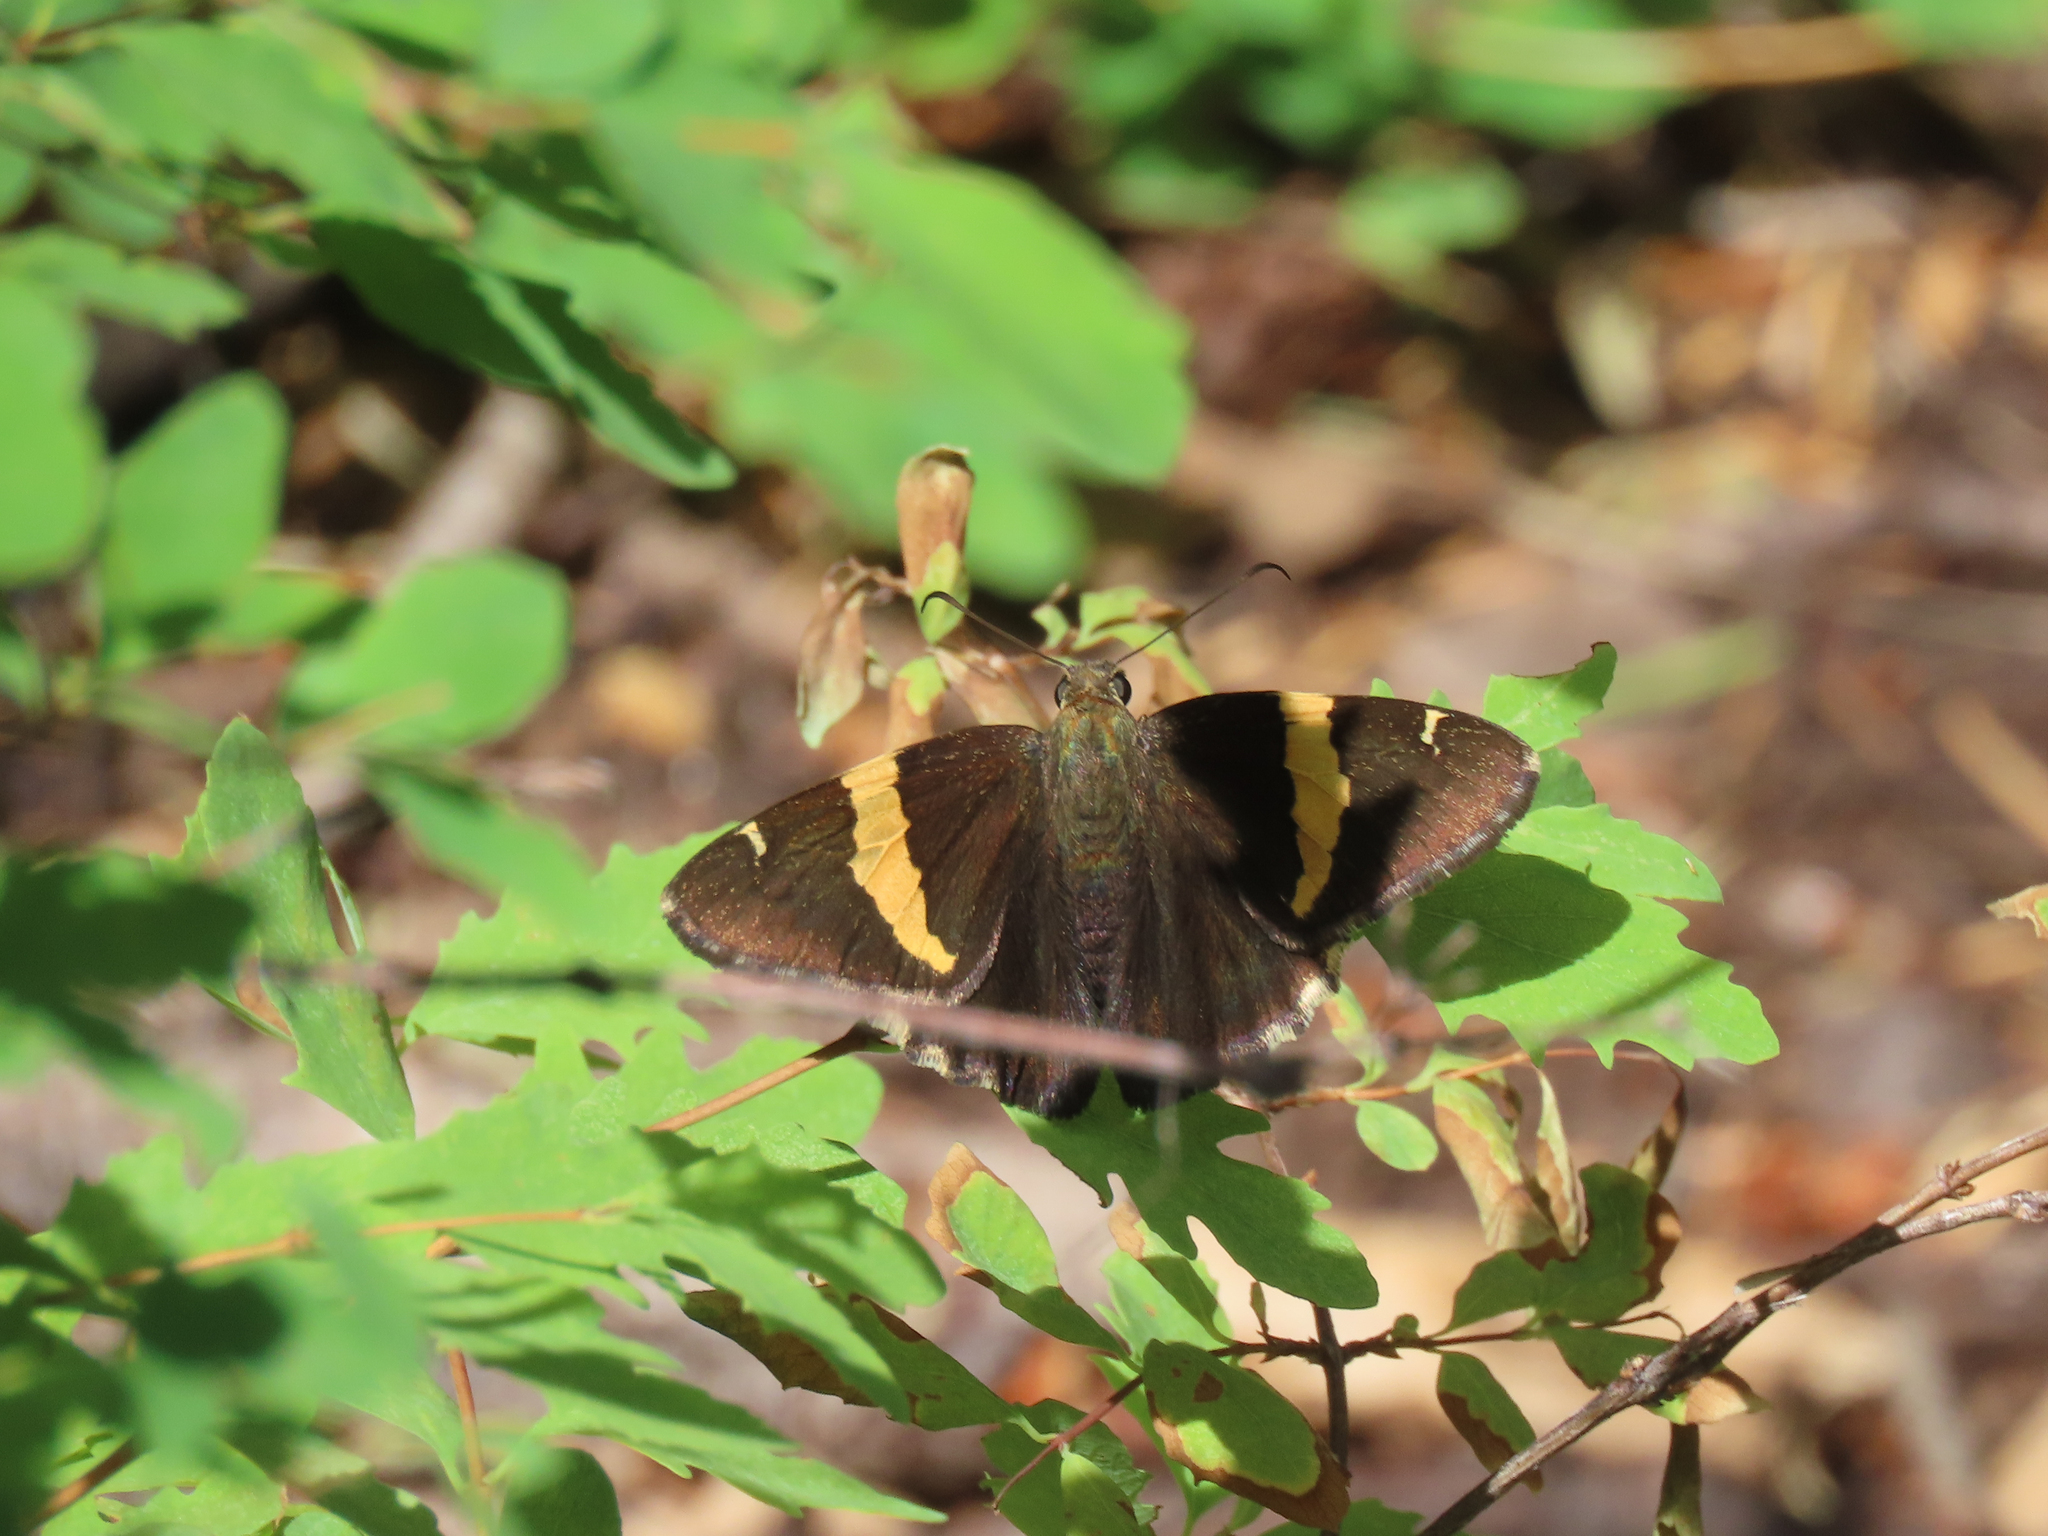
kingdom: Animalia
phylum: Arthropoda
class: Arachnida
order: Scorpiones
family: Bothriuridae
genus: Telegonus
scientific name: Telegonus cellus
